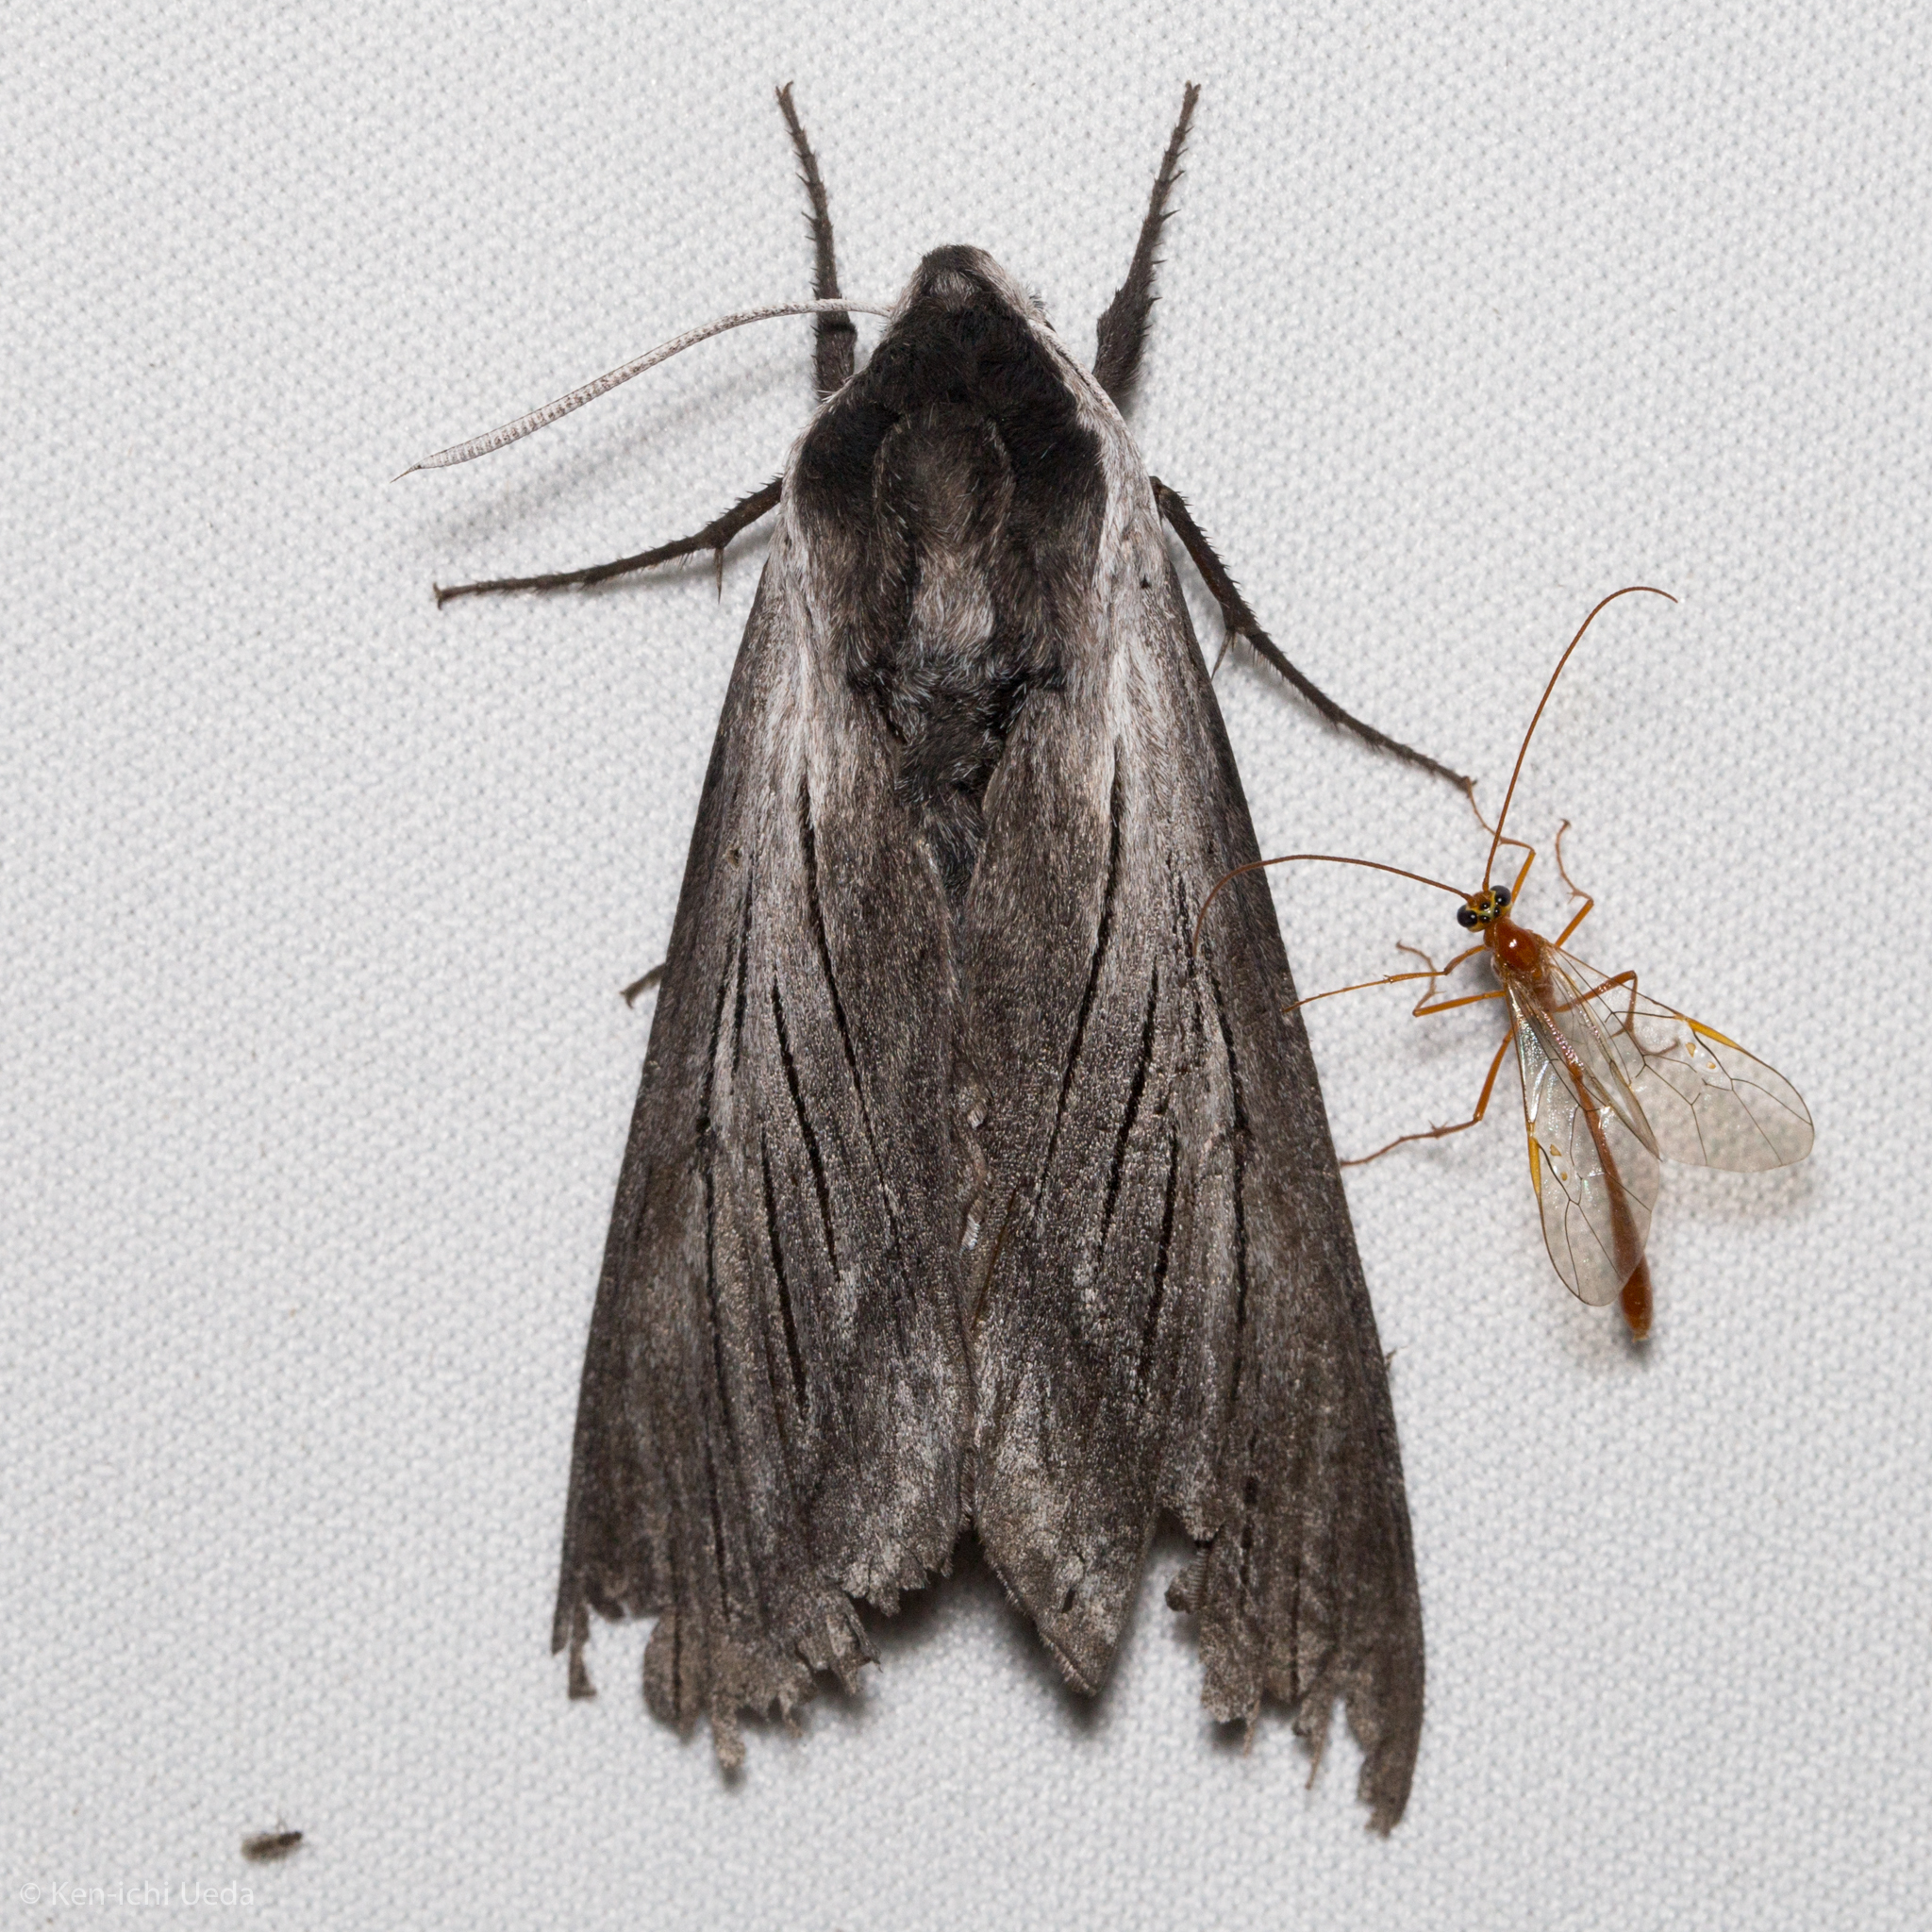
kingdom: Animalia
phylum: Arthropoda
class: Insecta
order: Lepidoptera
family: Sphingidae
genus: Sphinx
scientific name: Sphinx perelegans
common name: Elegant sphinx
